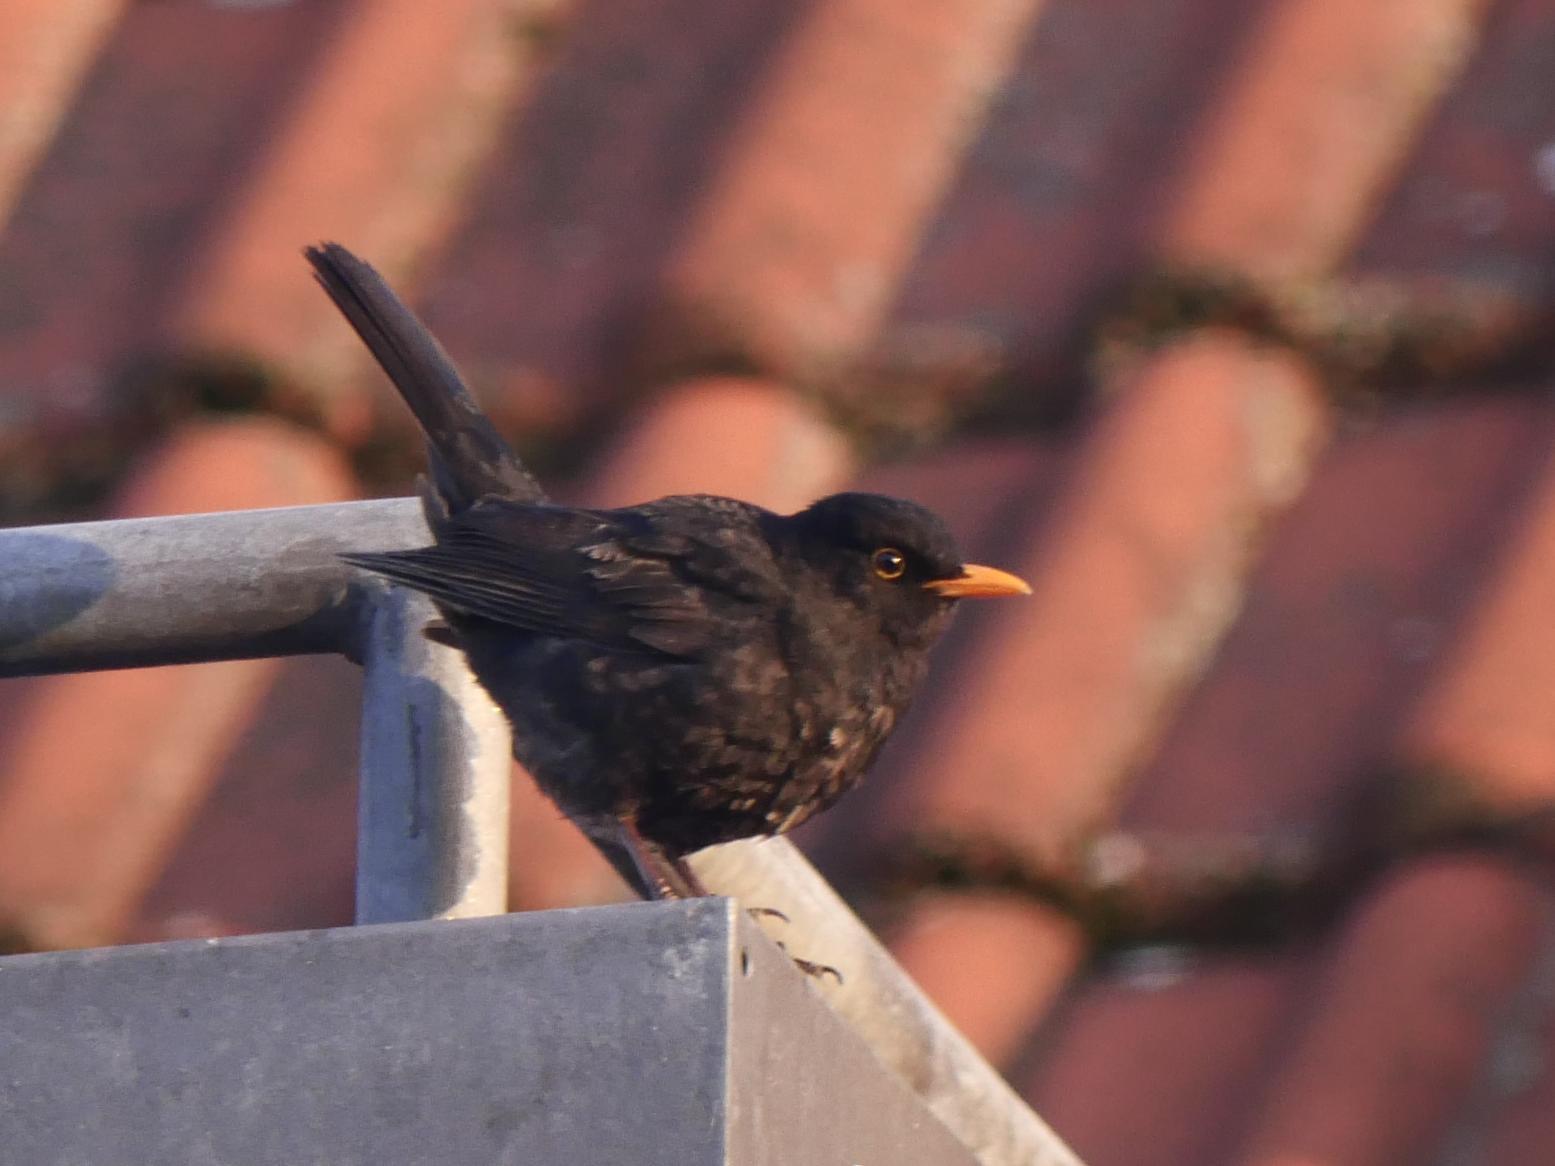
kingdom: Animalia
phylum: Chordata
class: Aves
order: Passeriformes
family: Turdidae
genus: Turdus
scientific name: Turdus merula
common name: Common blackbird
